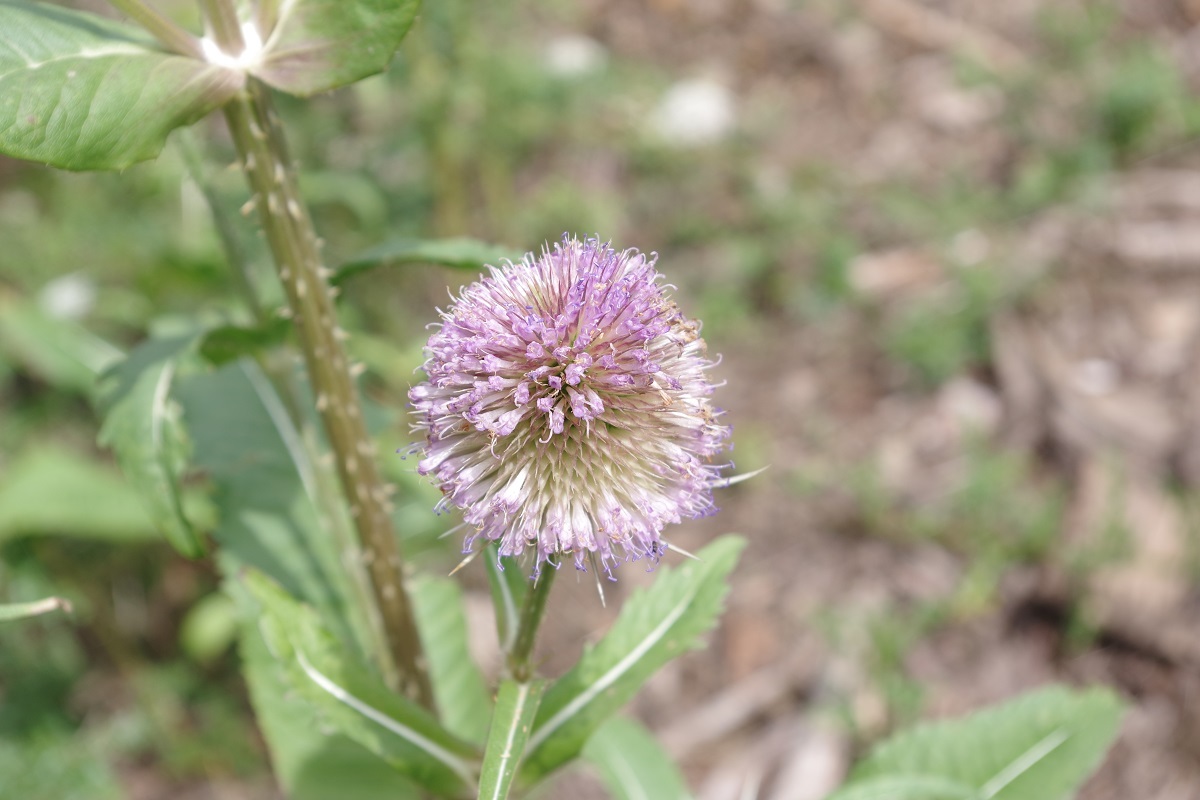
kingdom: Plantae
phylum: Tracheophyta
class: Magnoliopsida
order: Dipsacales
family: Caprifoliaceae
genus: Dipsacus
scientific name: Dipsacus fullonum
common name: Teasel
